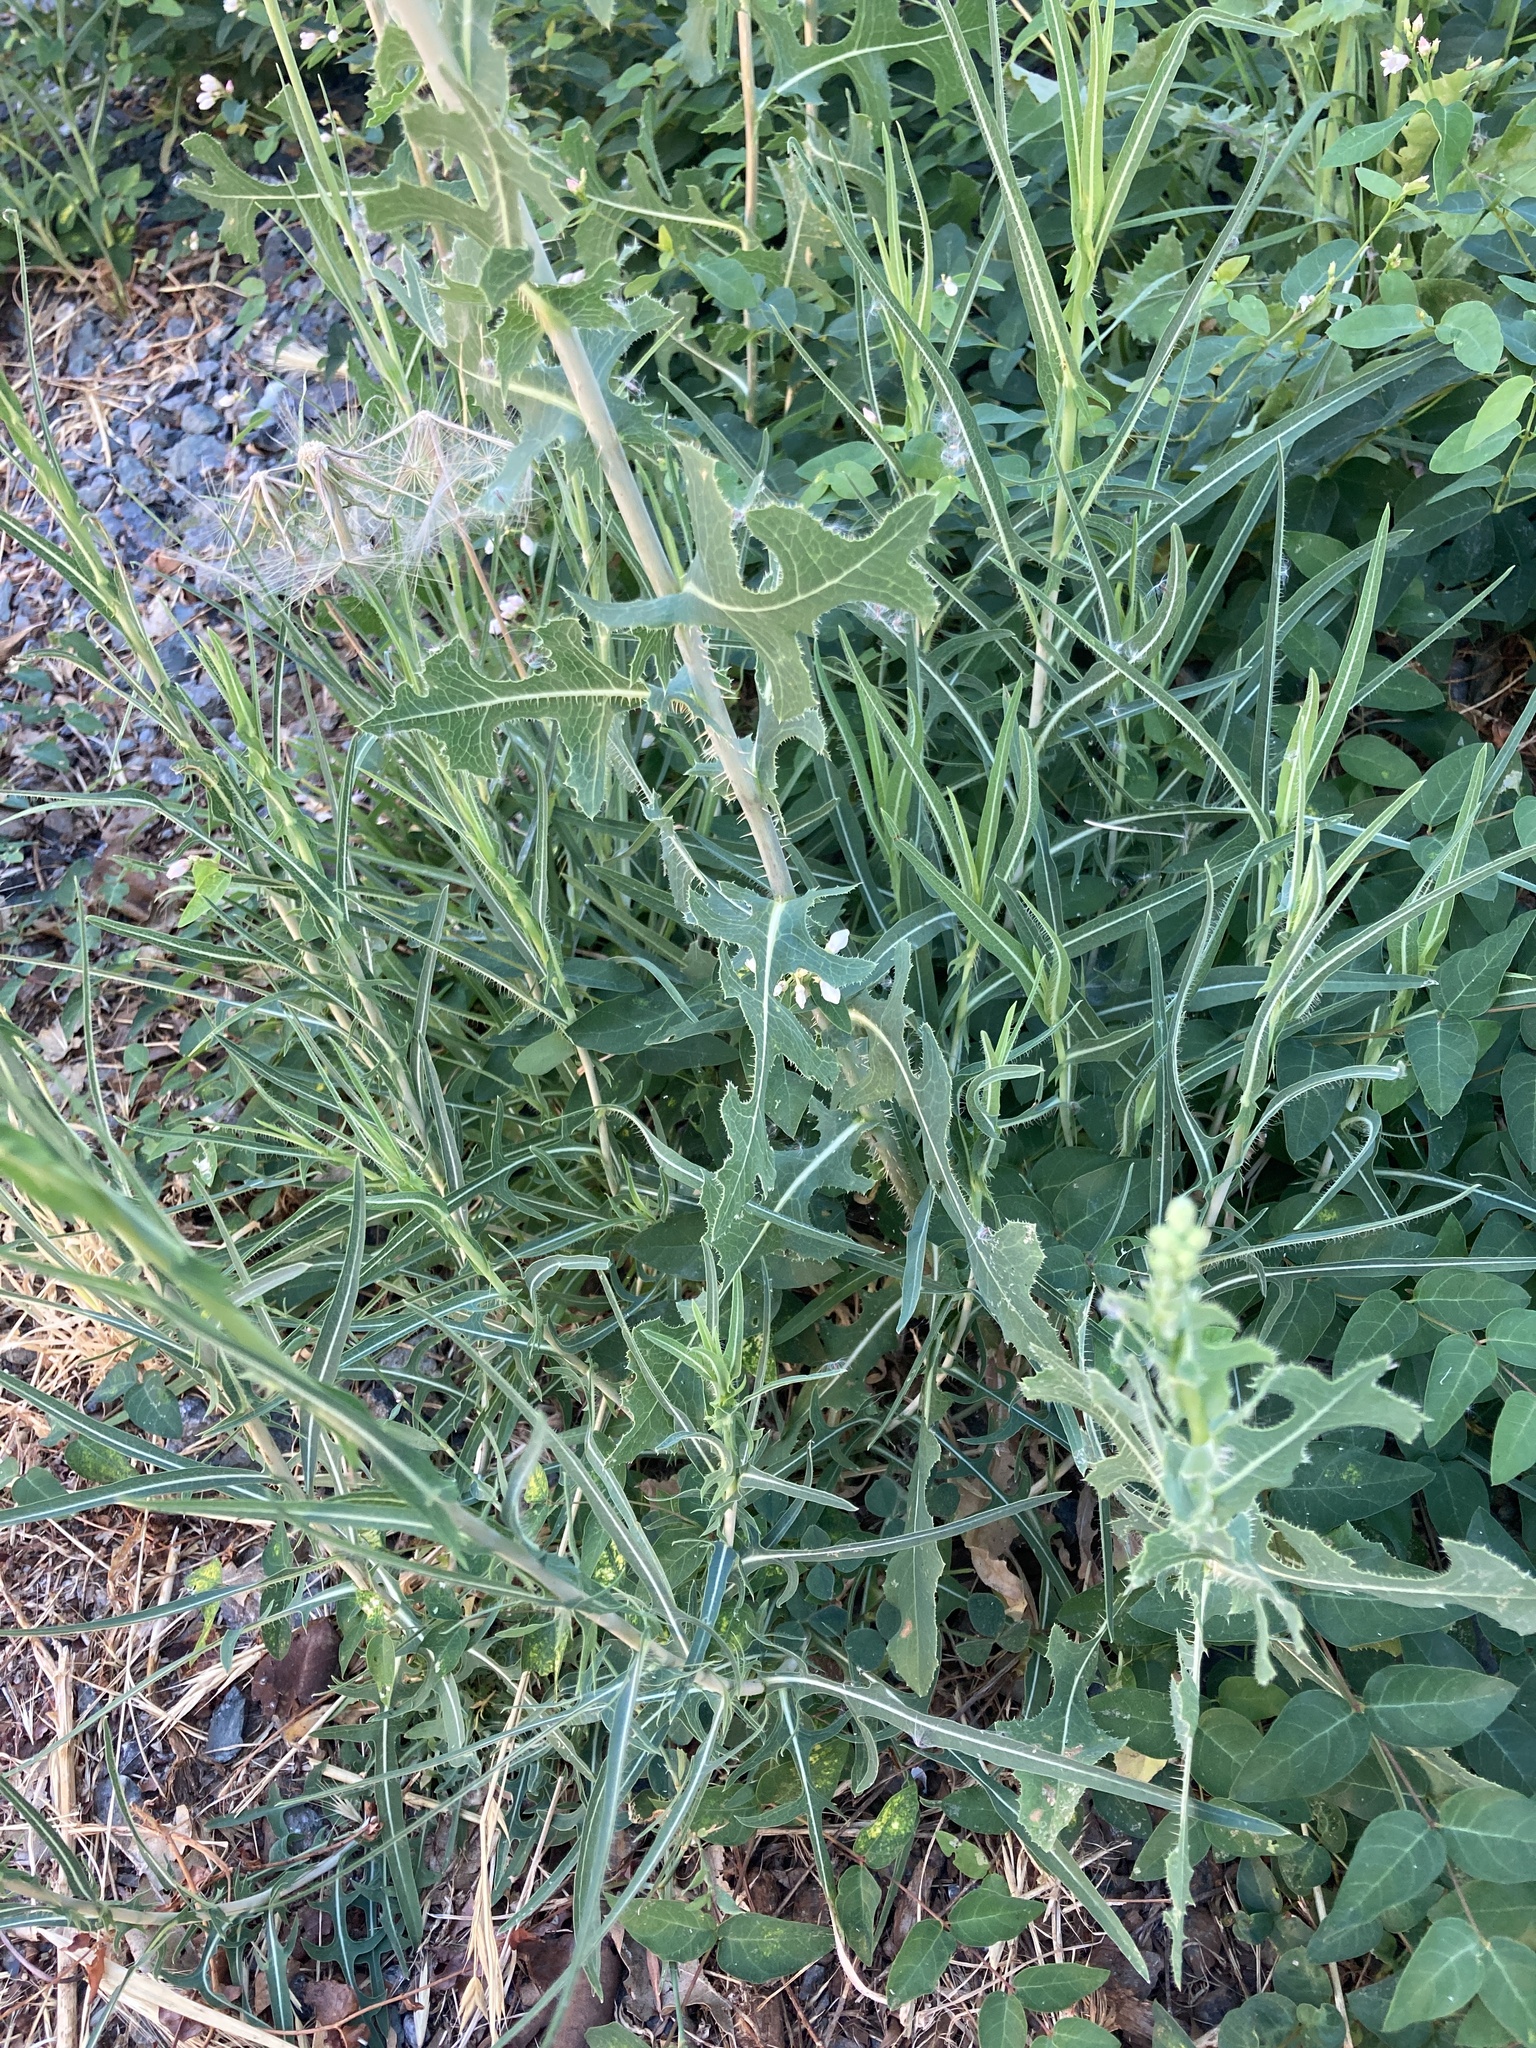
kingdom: Plantae
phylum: Tracheophyta
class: Magnoliopsida
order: Asterales
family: Asteraceae
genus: Lactuca
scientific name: Lactuca serriola
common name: Prickly lettuce
